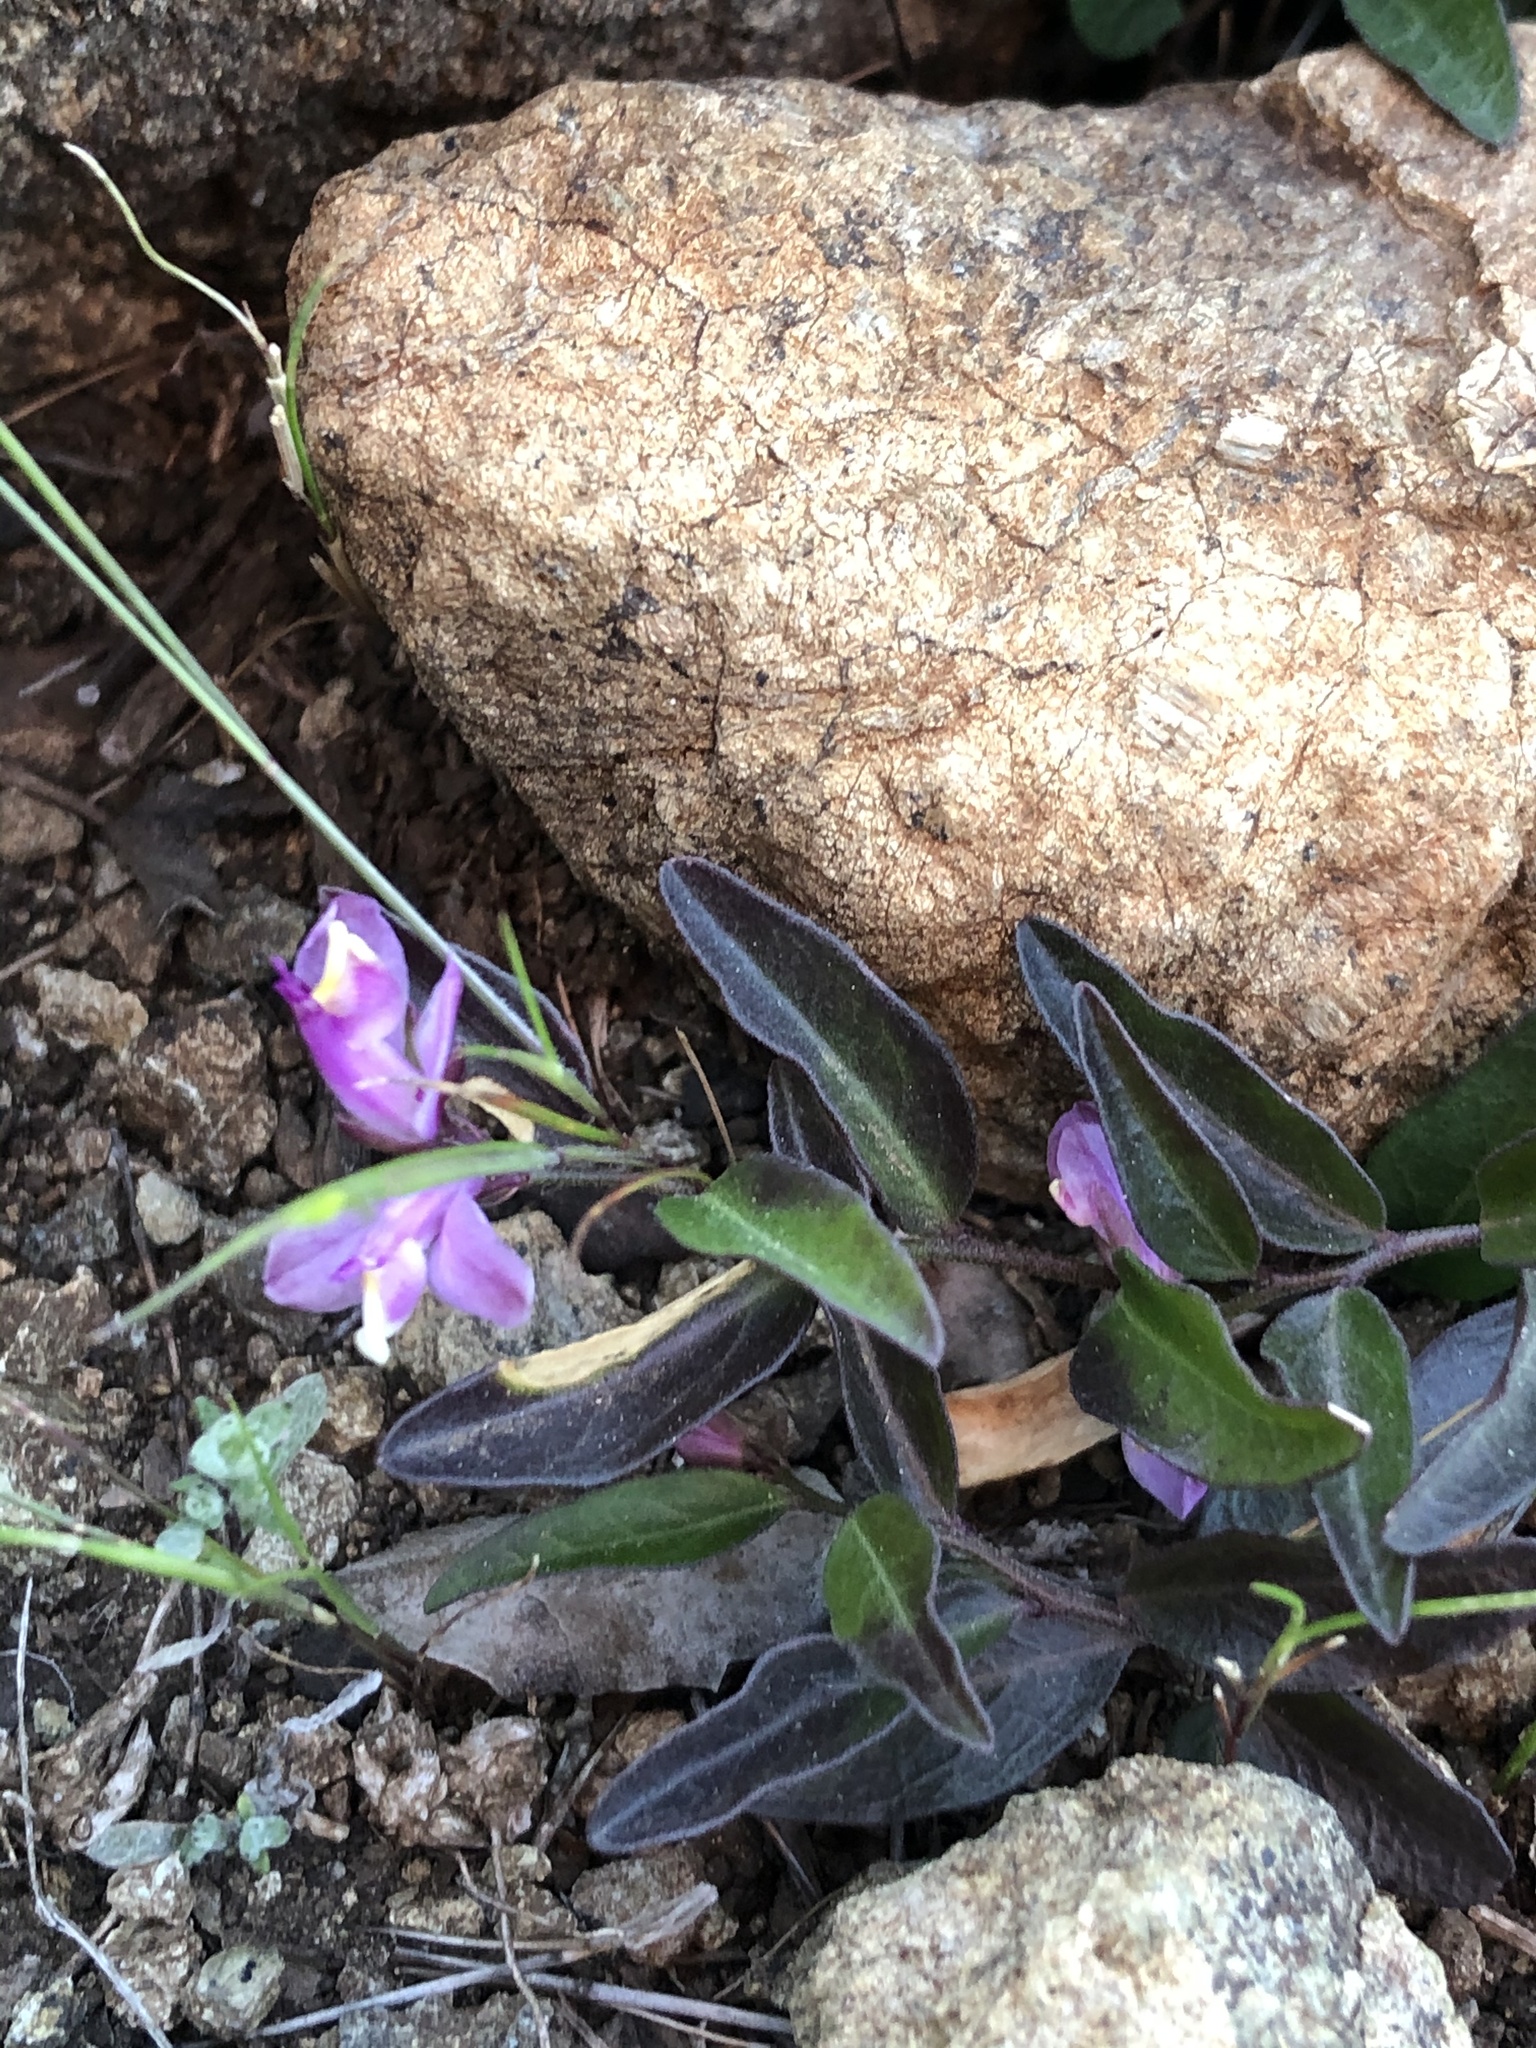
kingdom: Plantae
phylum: Tracheophyta
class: Magnoliopsida
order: Fabales
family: Polygalaceae
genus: Rhinotropis
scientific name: Rhinotropis californica
